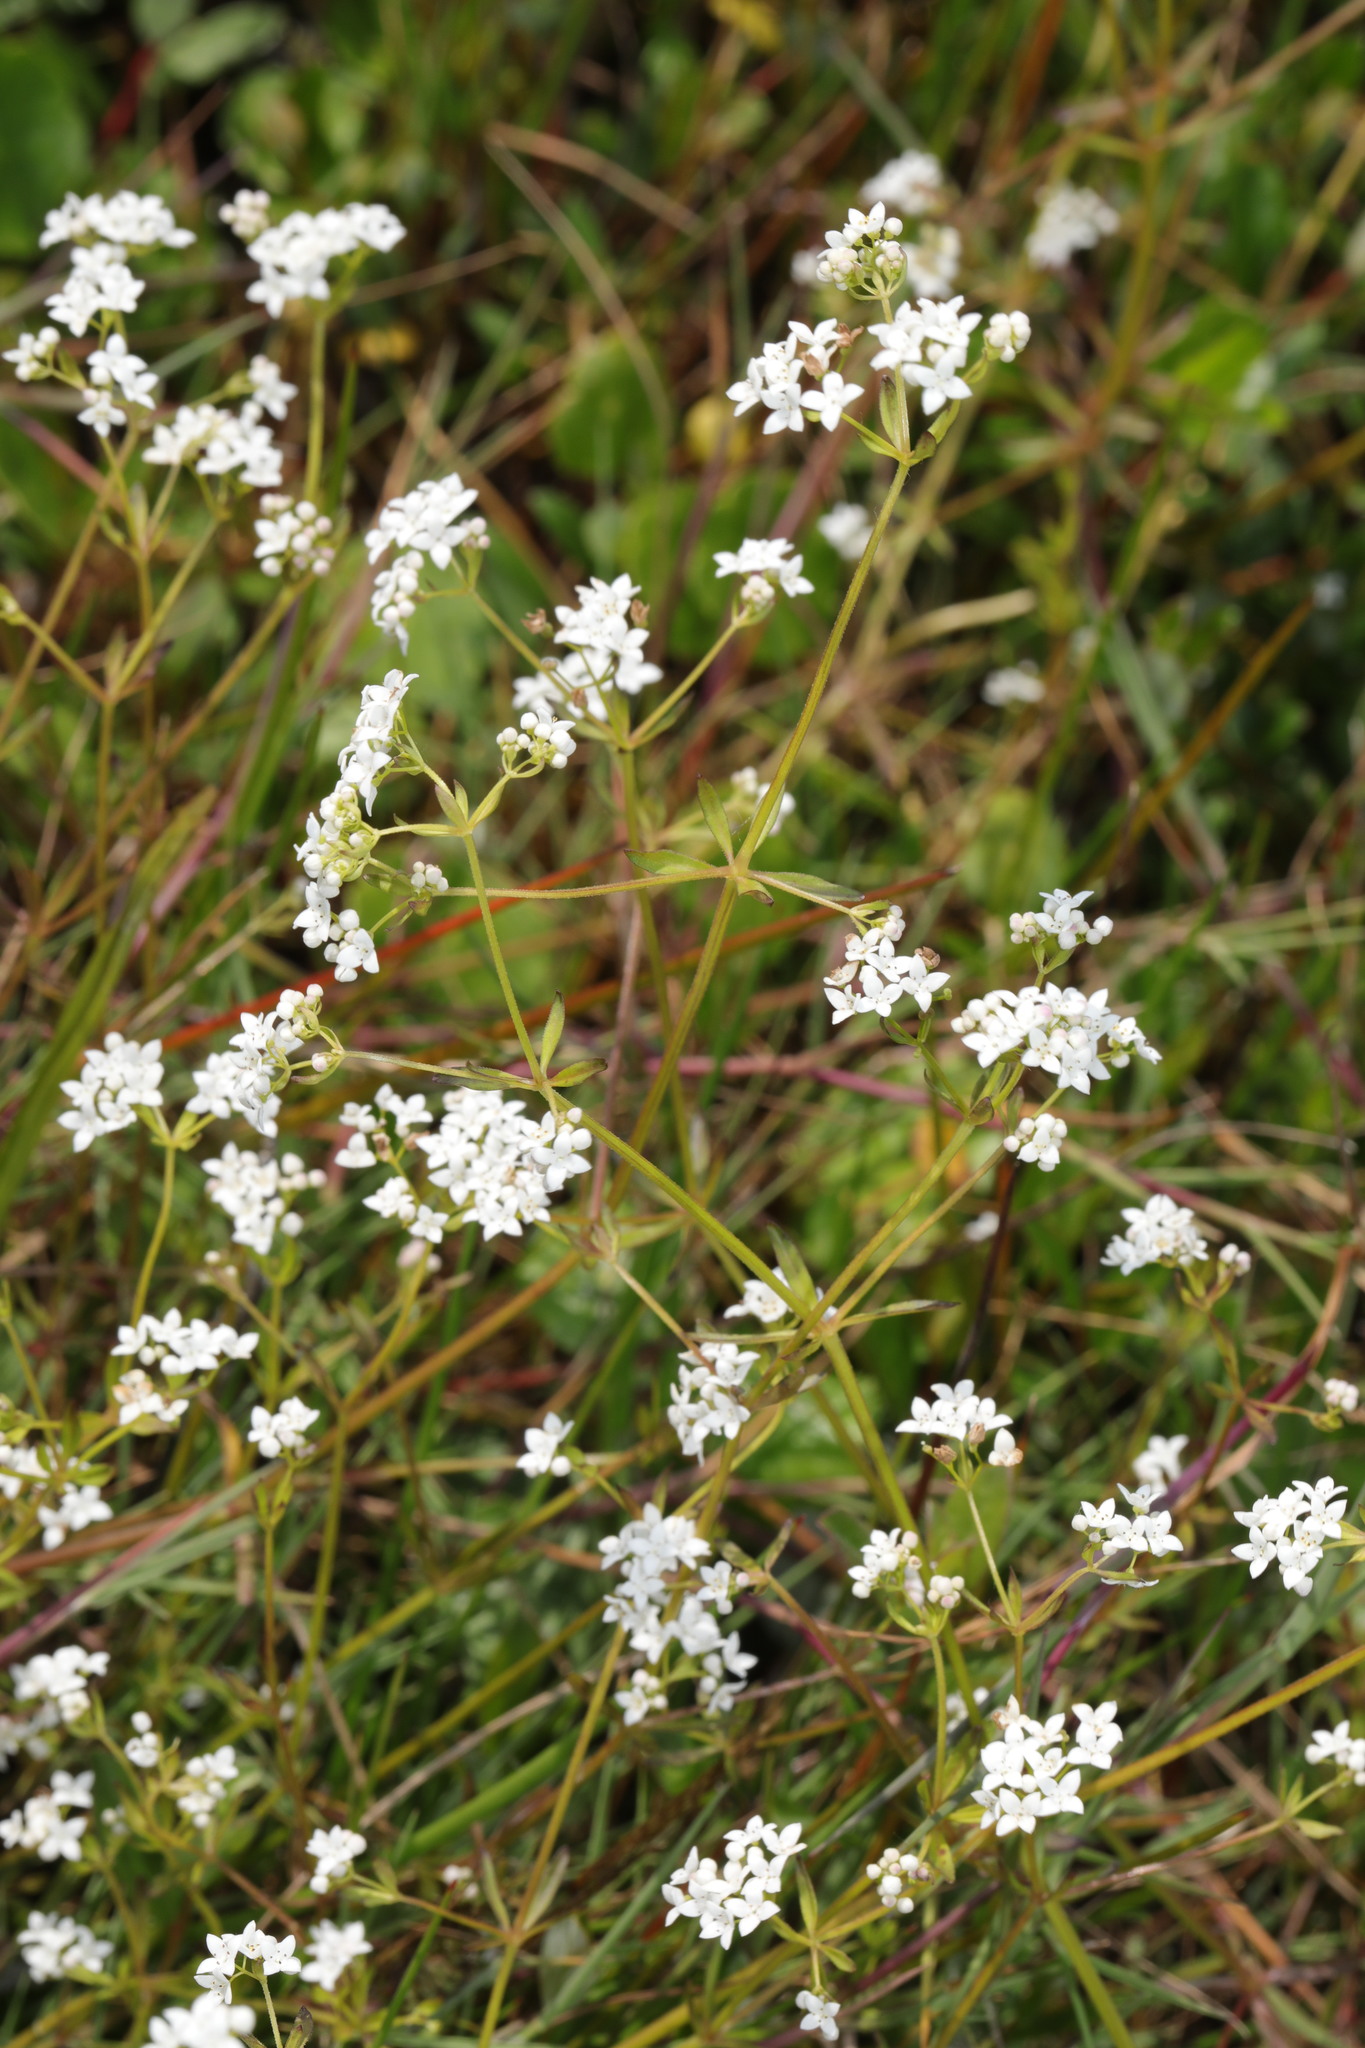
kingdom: Plantae
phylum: Tracheophyta
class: Magnoliopsida
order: Gentianales
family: Rubiaceae
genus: Galium
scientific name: Galium palustre
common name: Common marsh-bedstraw
